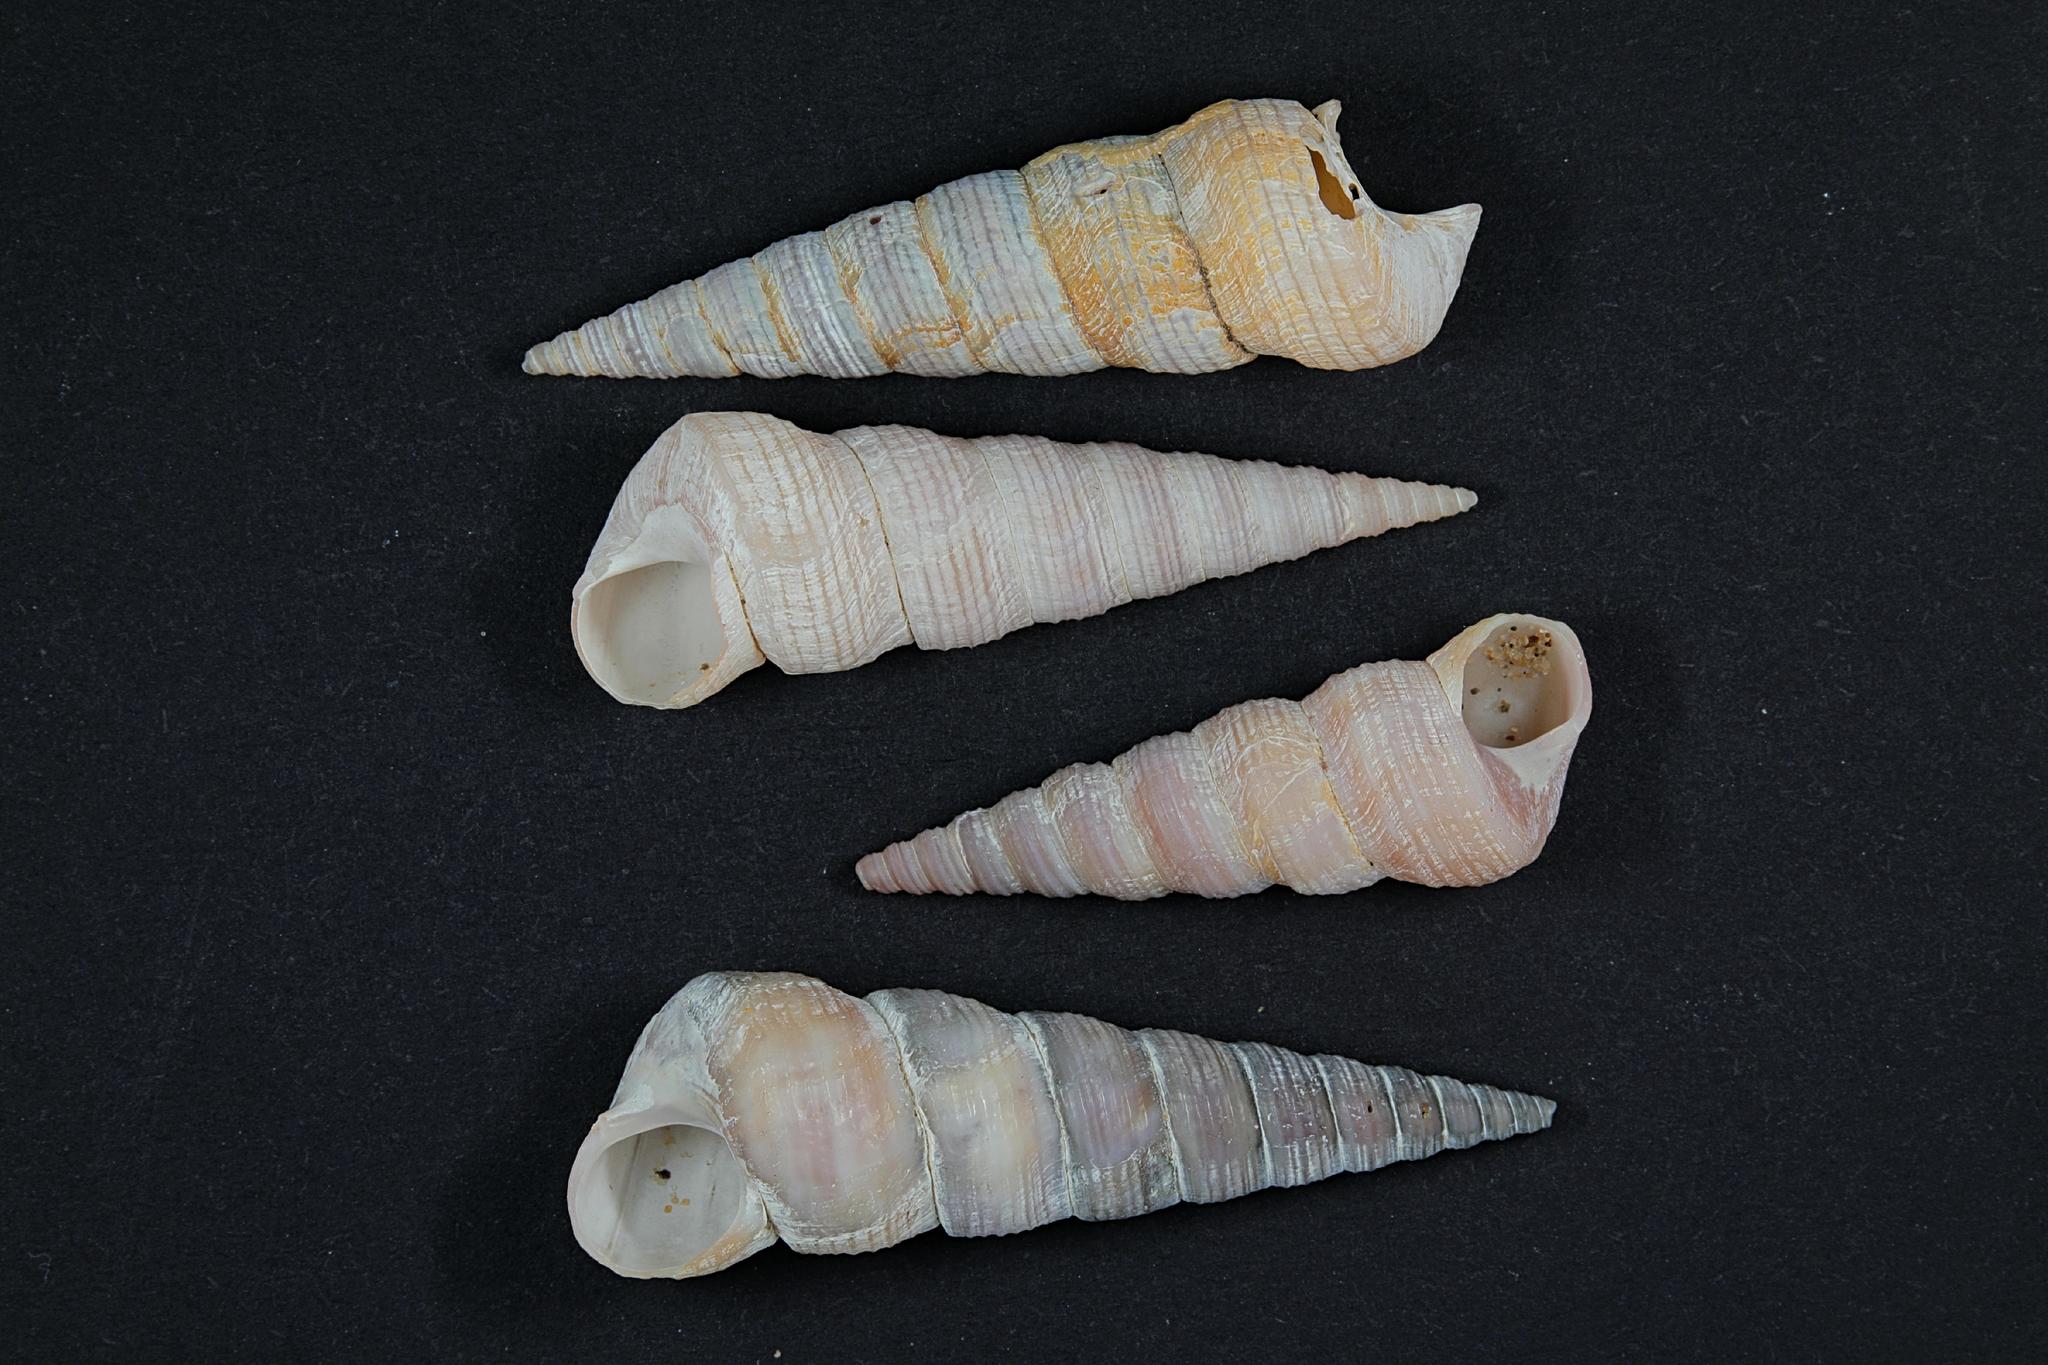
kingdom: Animalia
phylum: Mollusca
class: Gastropoda
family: Turritellidae
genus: Turritellinella
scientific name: Turritellinella tricarinata
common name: Auger shell
